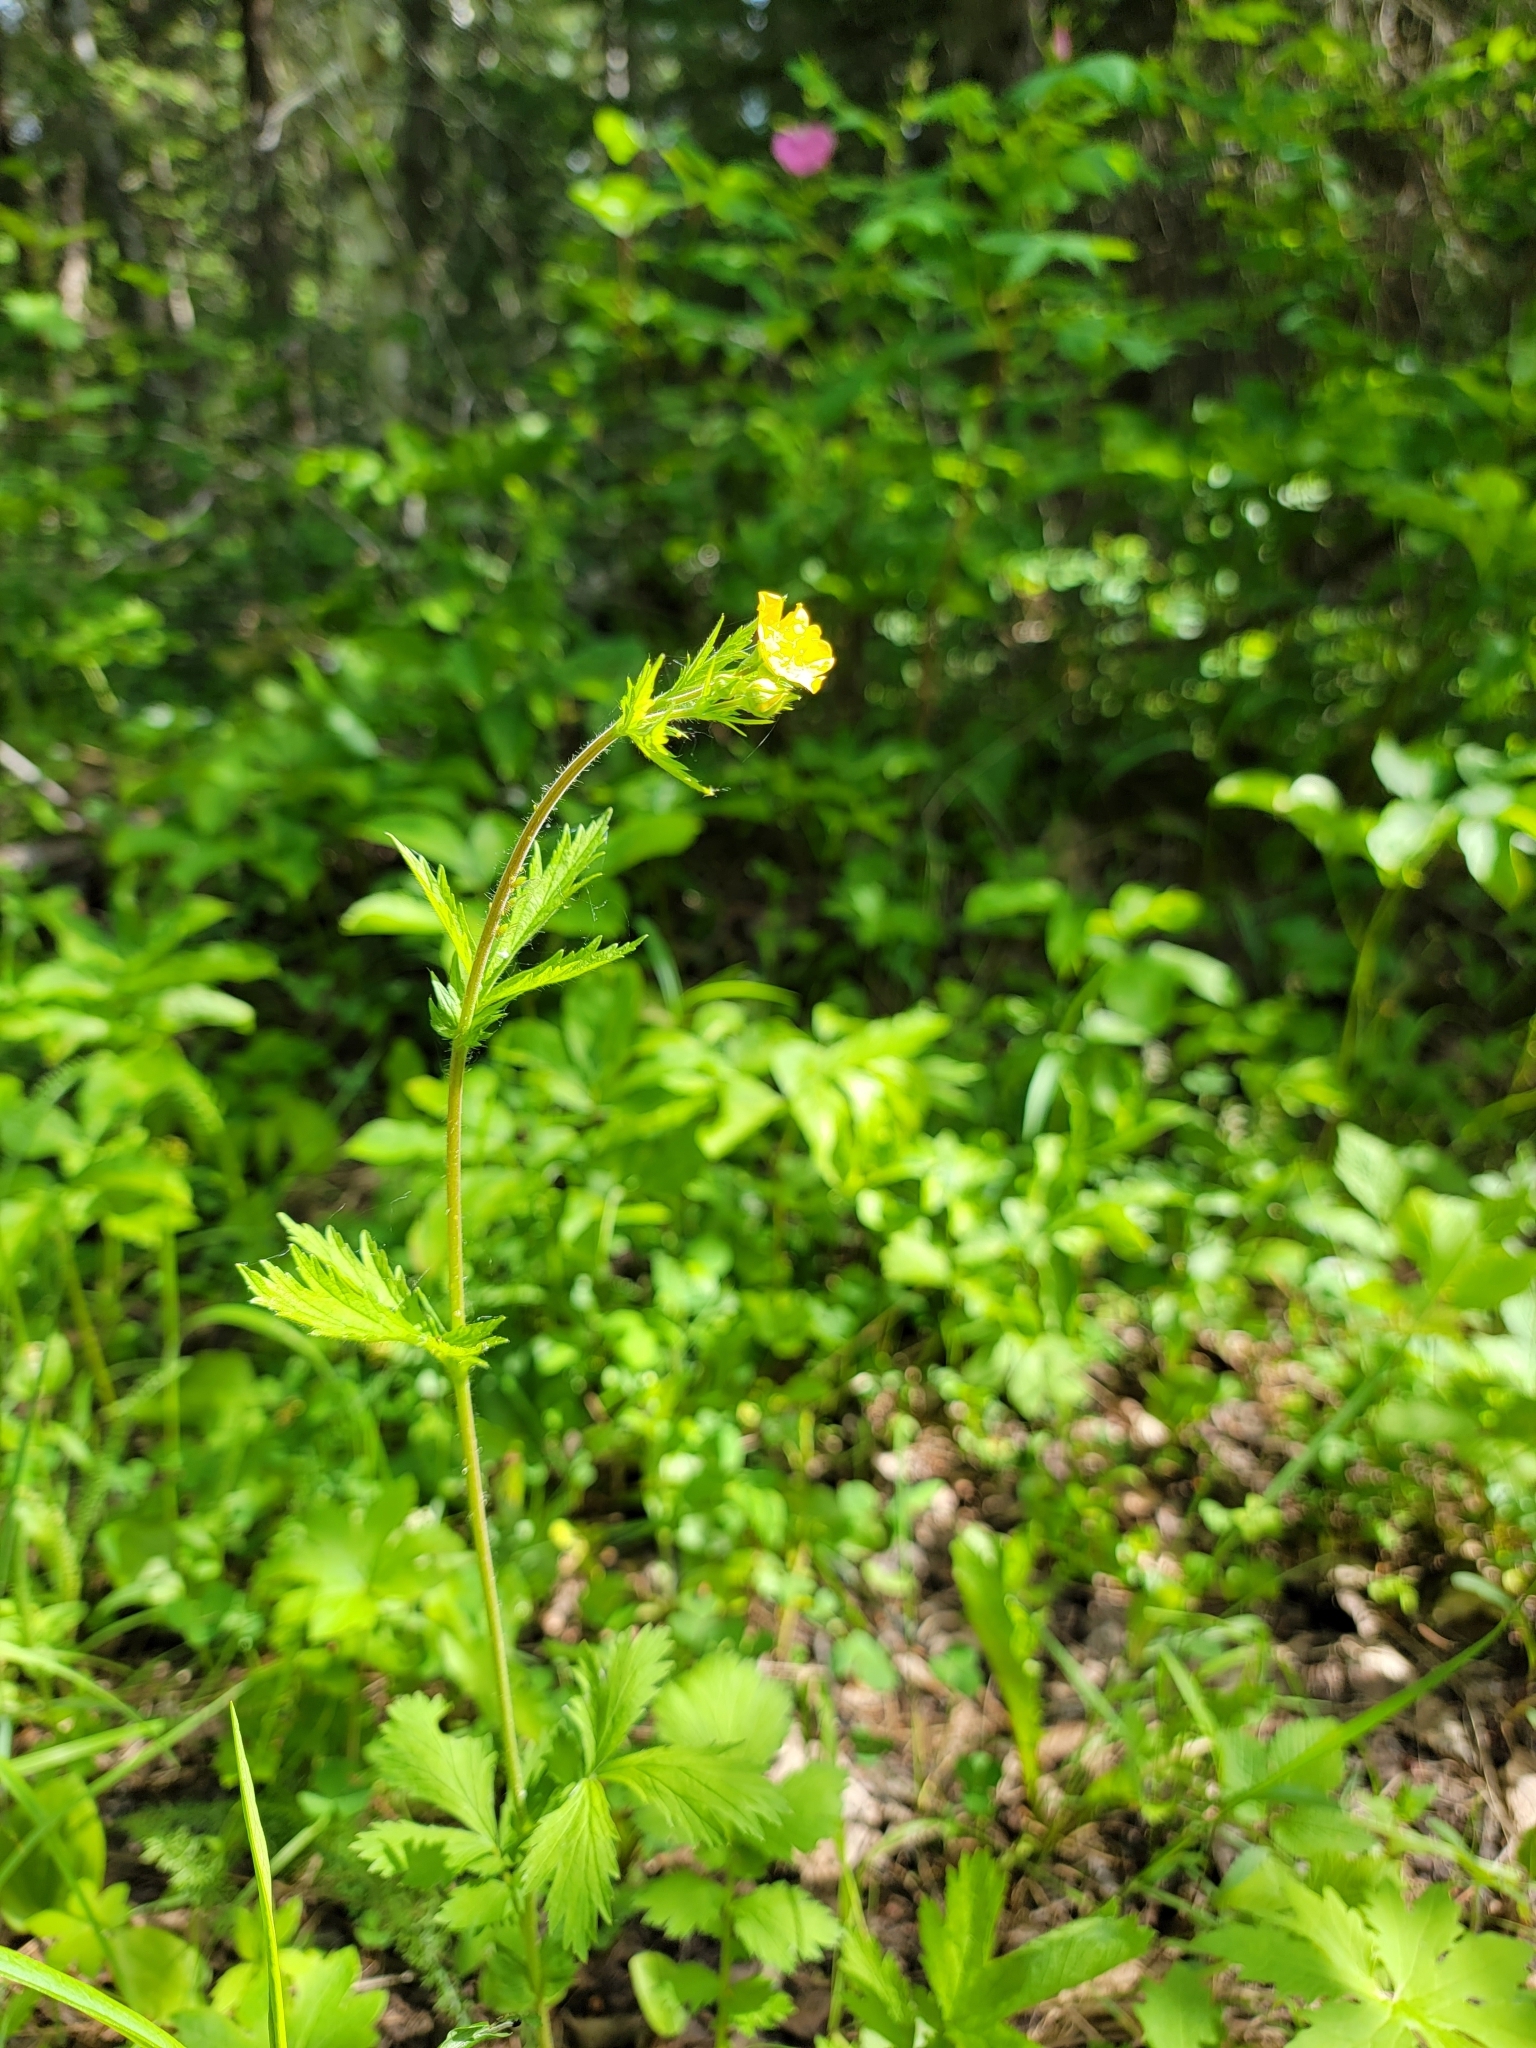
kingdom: Plantae
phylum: Tracheophyta
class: Magnoliopsida
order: Rosales
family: Rosaceae
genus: Potentilla
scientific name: Potentilla norvegica
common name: Ternate-leaved cinquefoil
